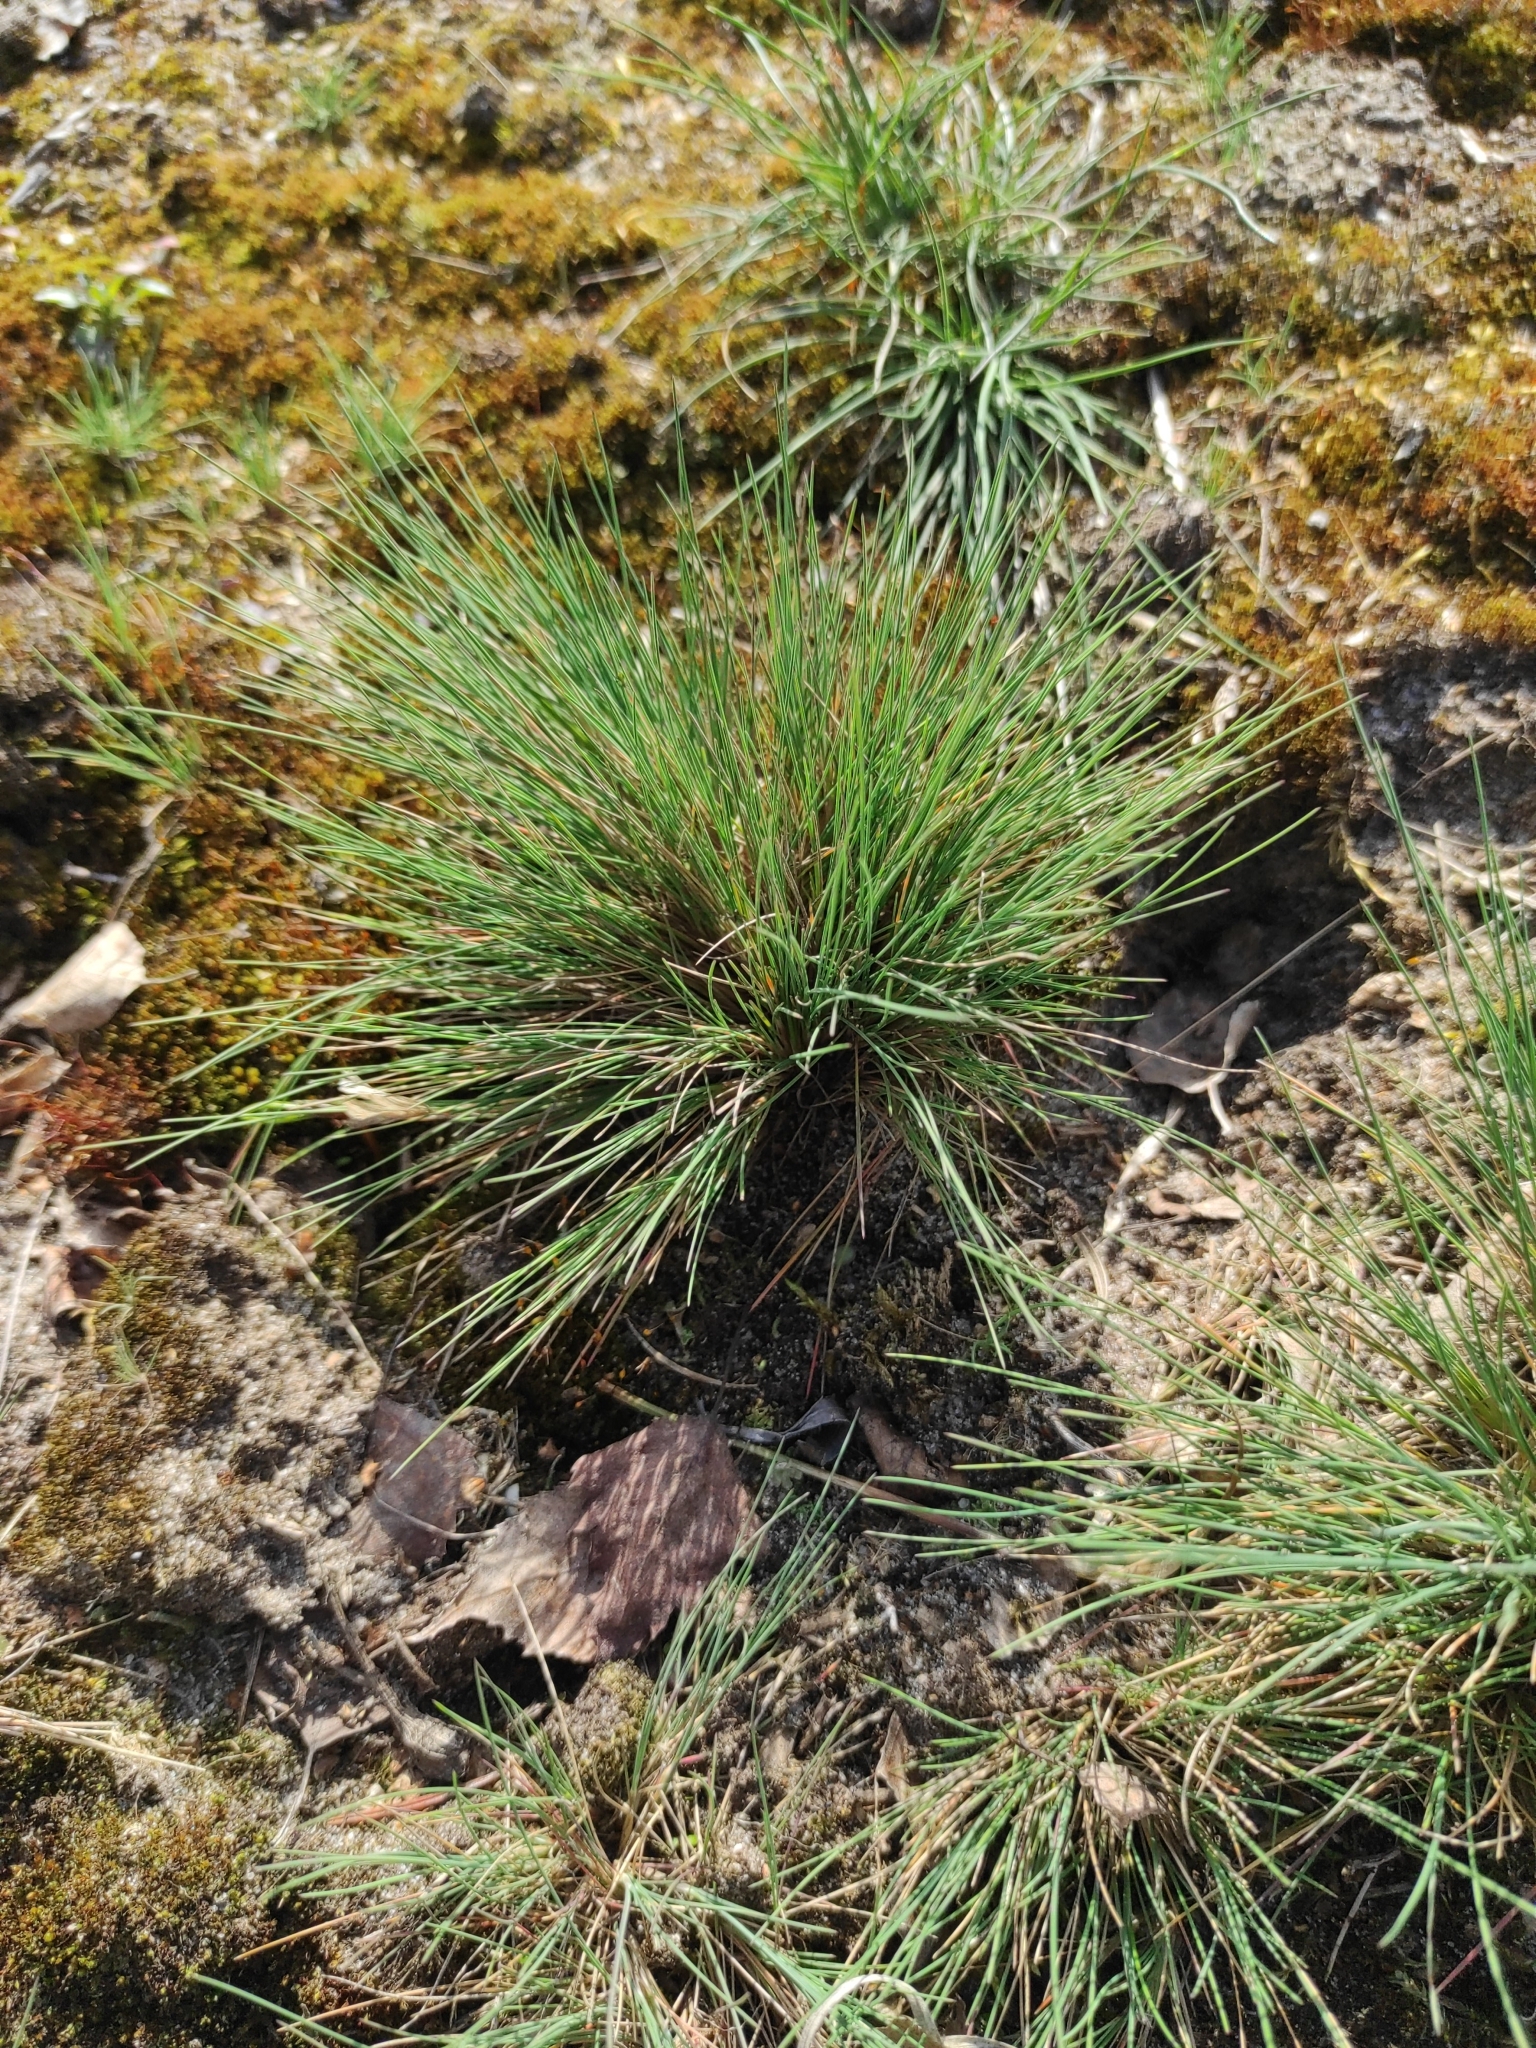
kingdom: Plantae
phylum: Tracheophyta
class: Liliopsida
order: Poales
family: Poaceae
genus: Corynephorus
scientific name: Corynephorus canescens
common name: Grey hair-grass
